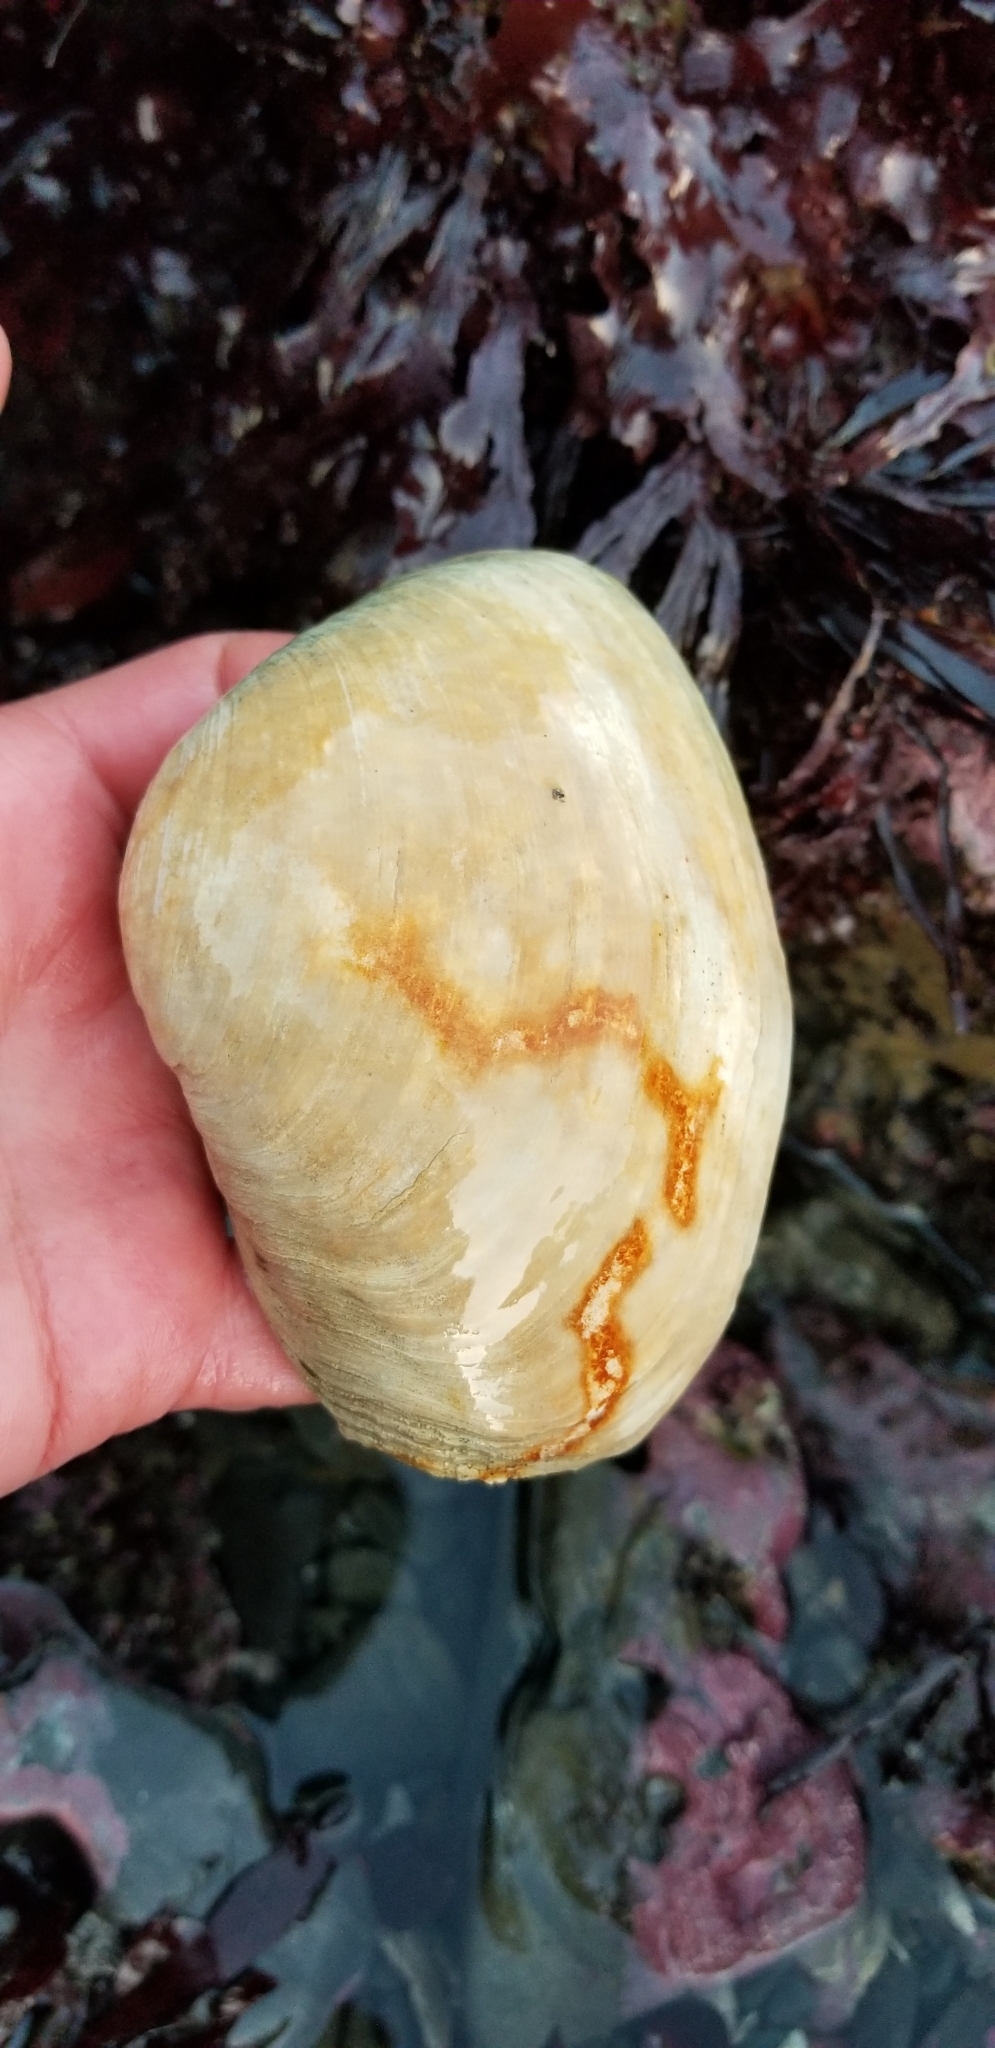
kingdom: Animalia
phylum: Mollusca
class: Bivalvia
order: Venerida
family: Mactridae
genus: Tresus
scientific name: Tresus nuttallii
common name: Pacific gaper clam
